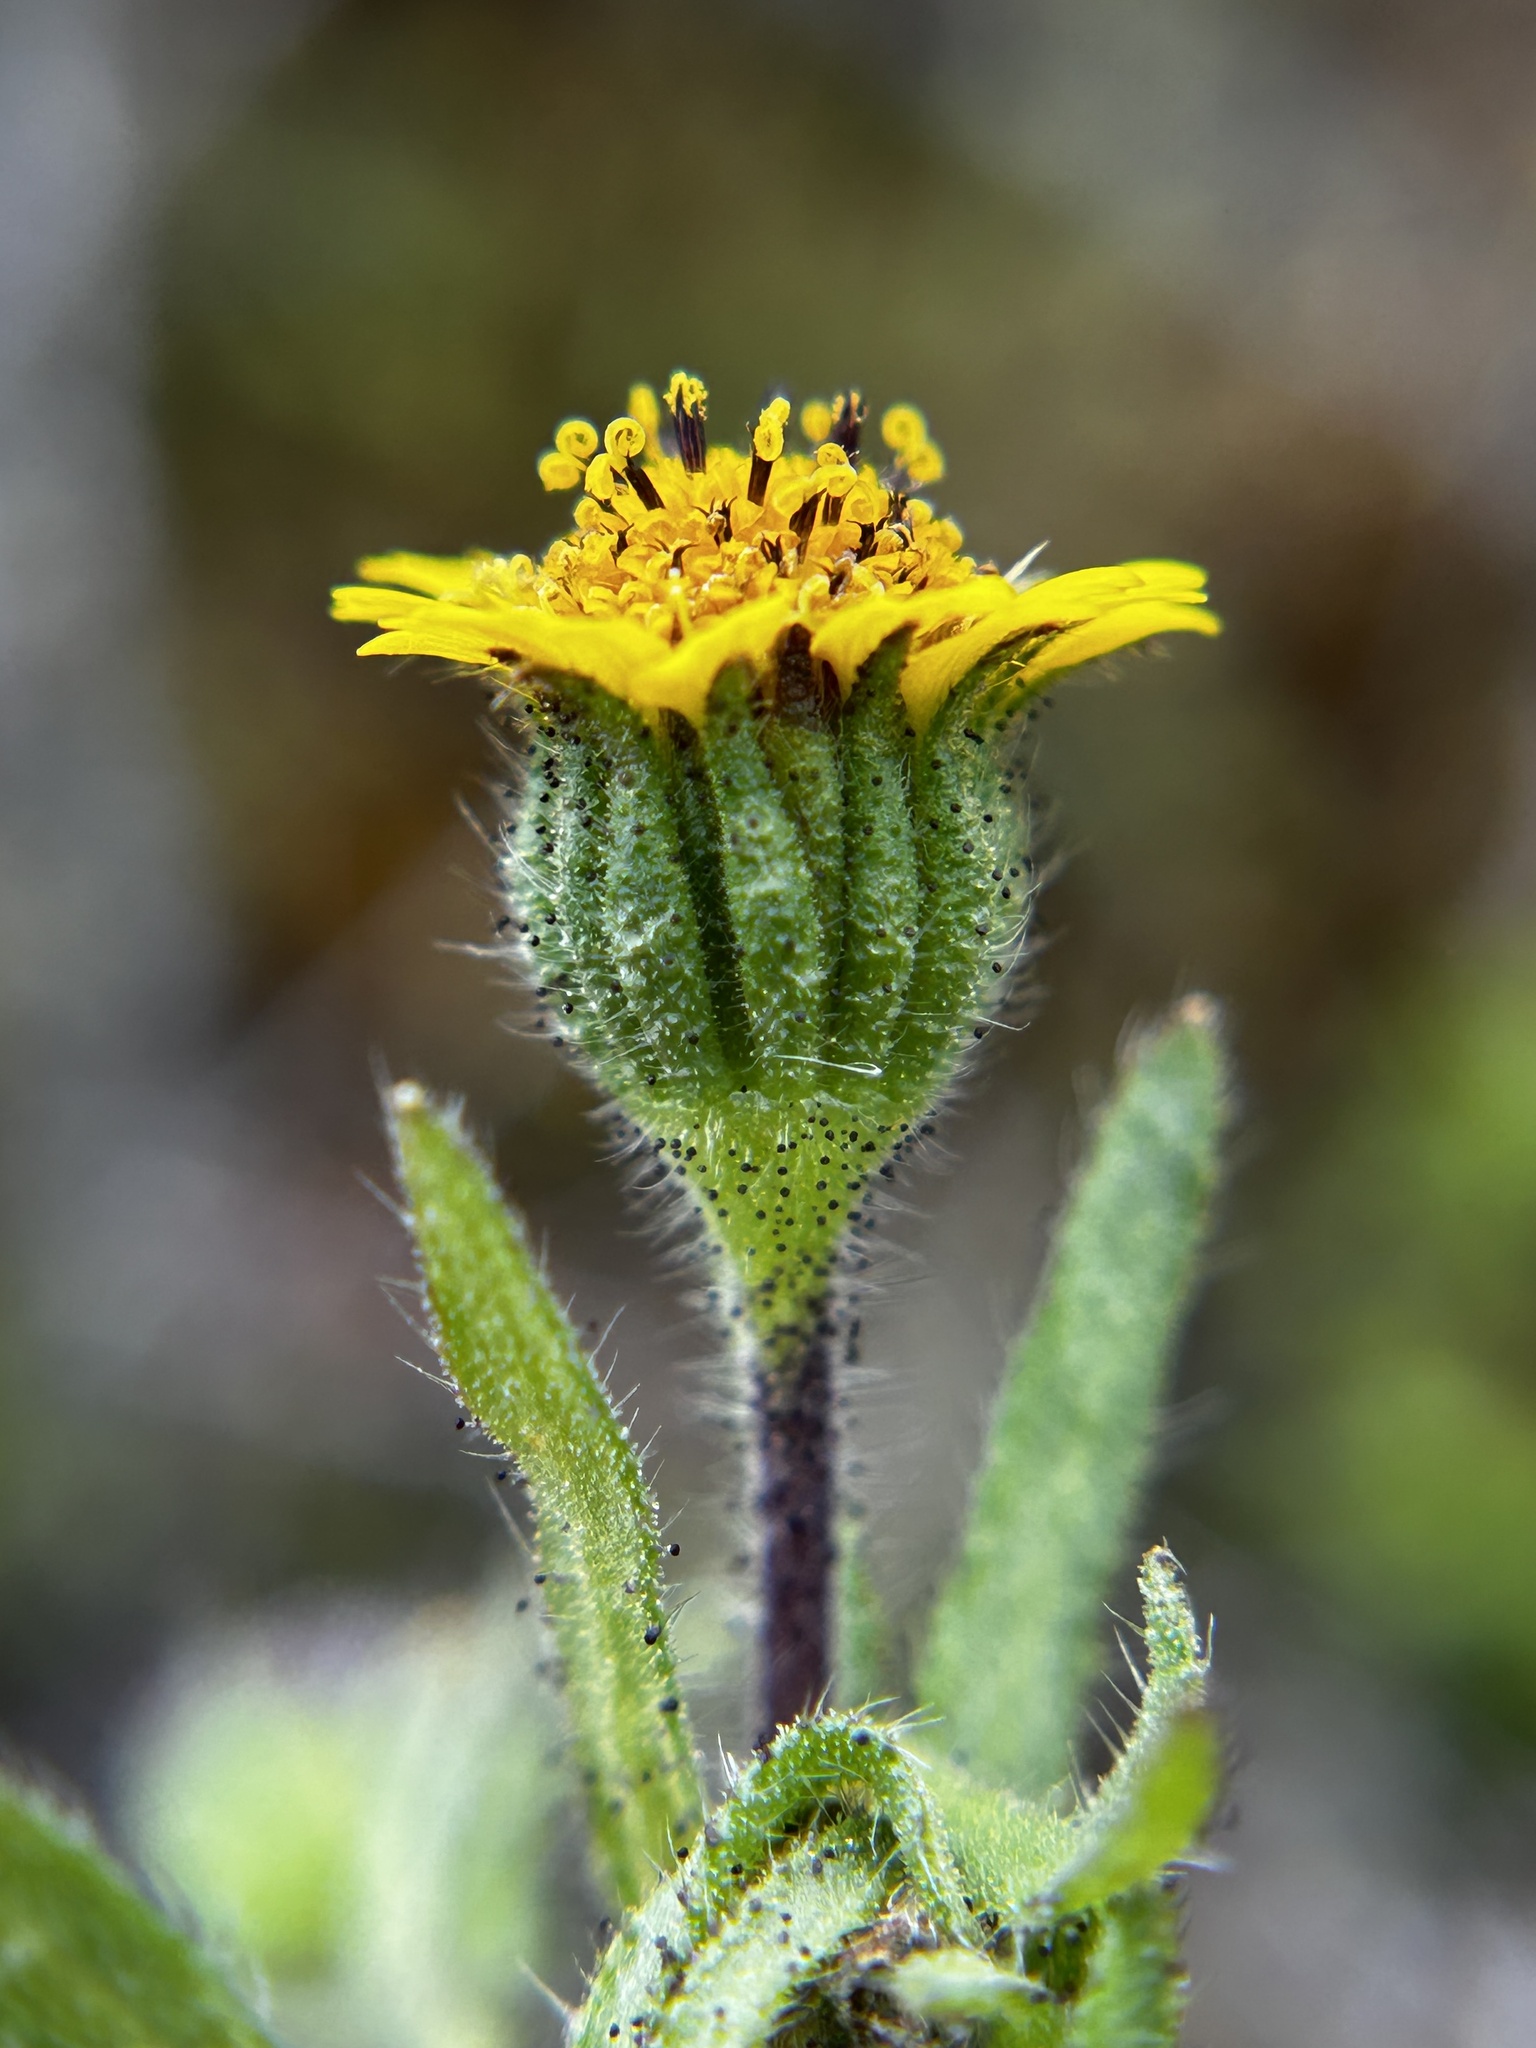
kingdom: Plantae
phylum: Tracheophyta
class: Magnoliopsida
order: Asterales
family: Asteraceae
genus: Layia
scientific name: Layia hieracioides
